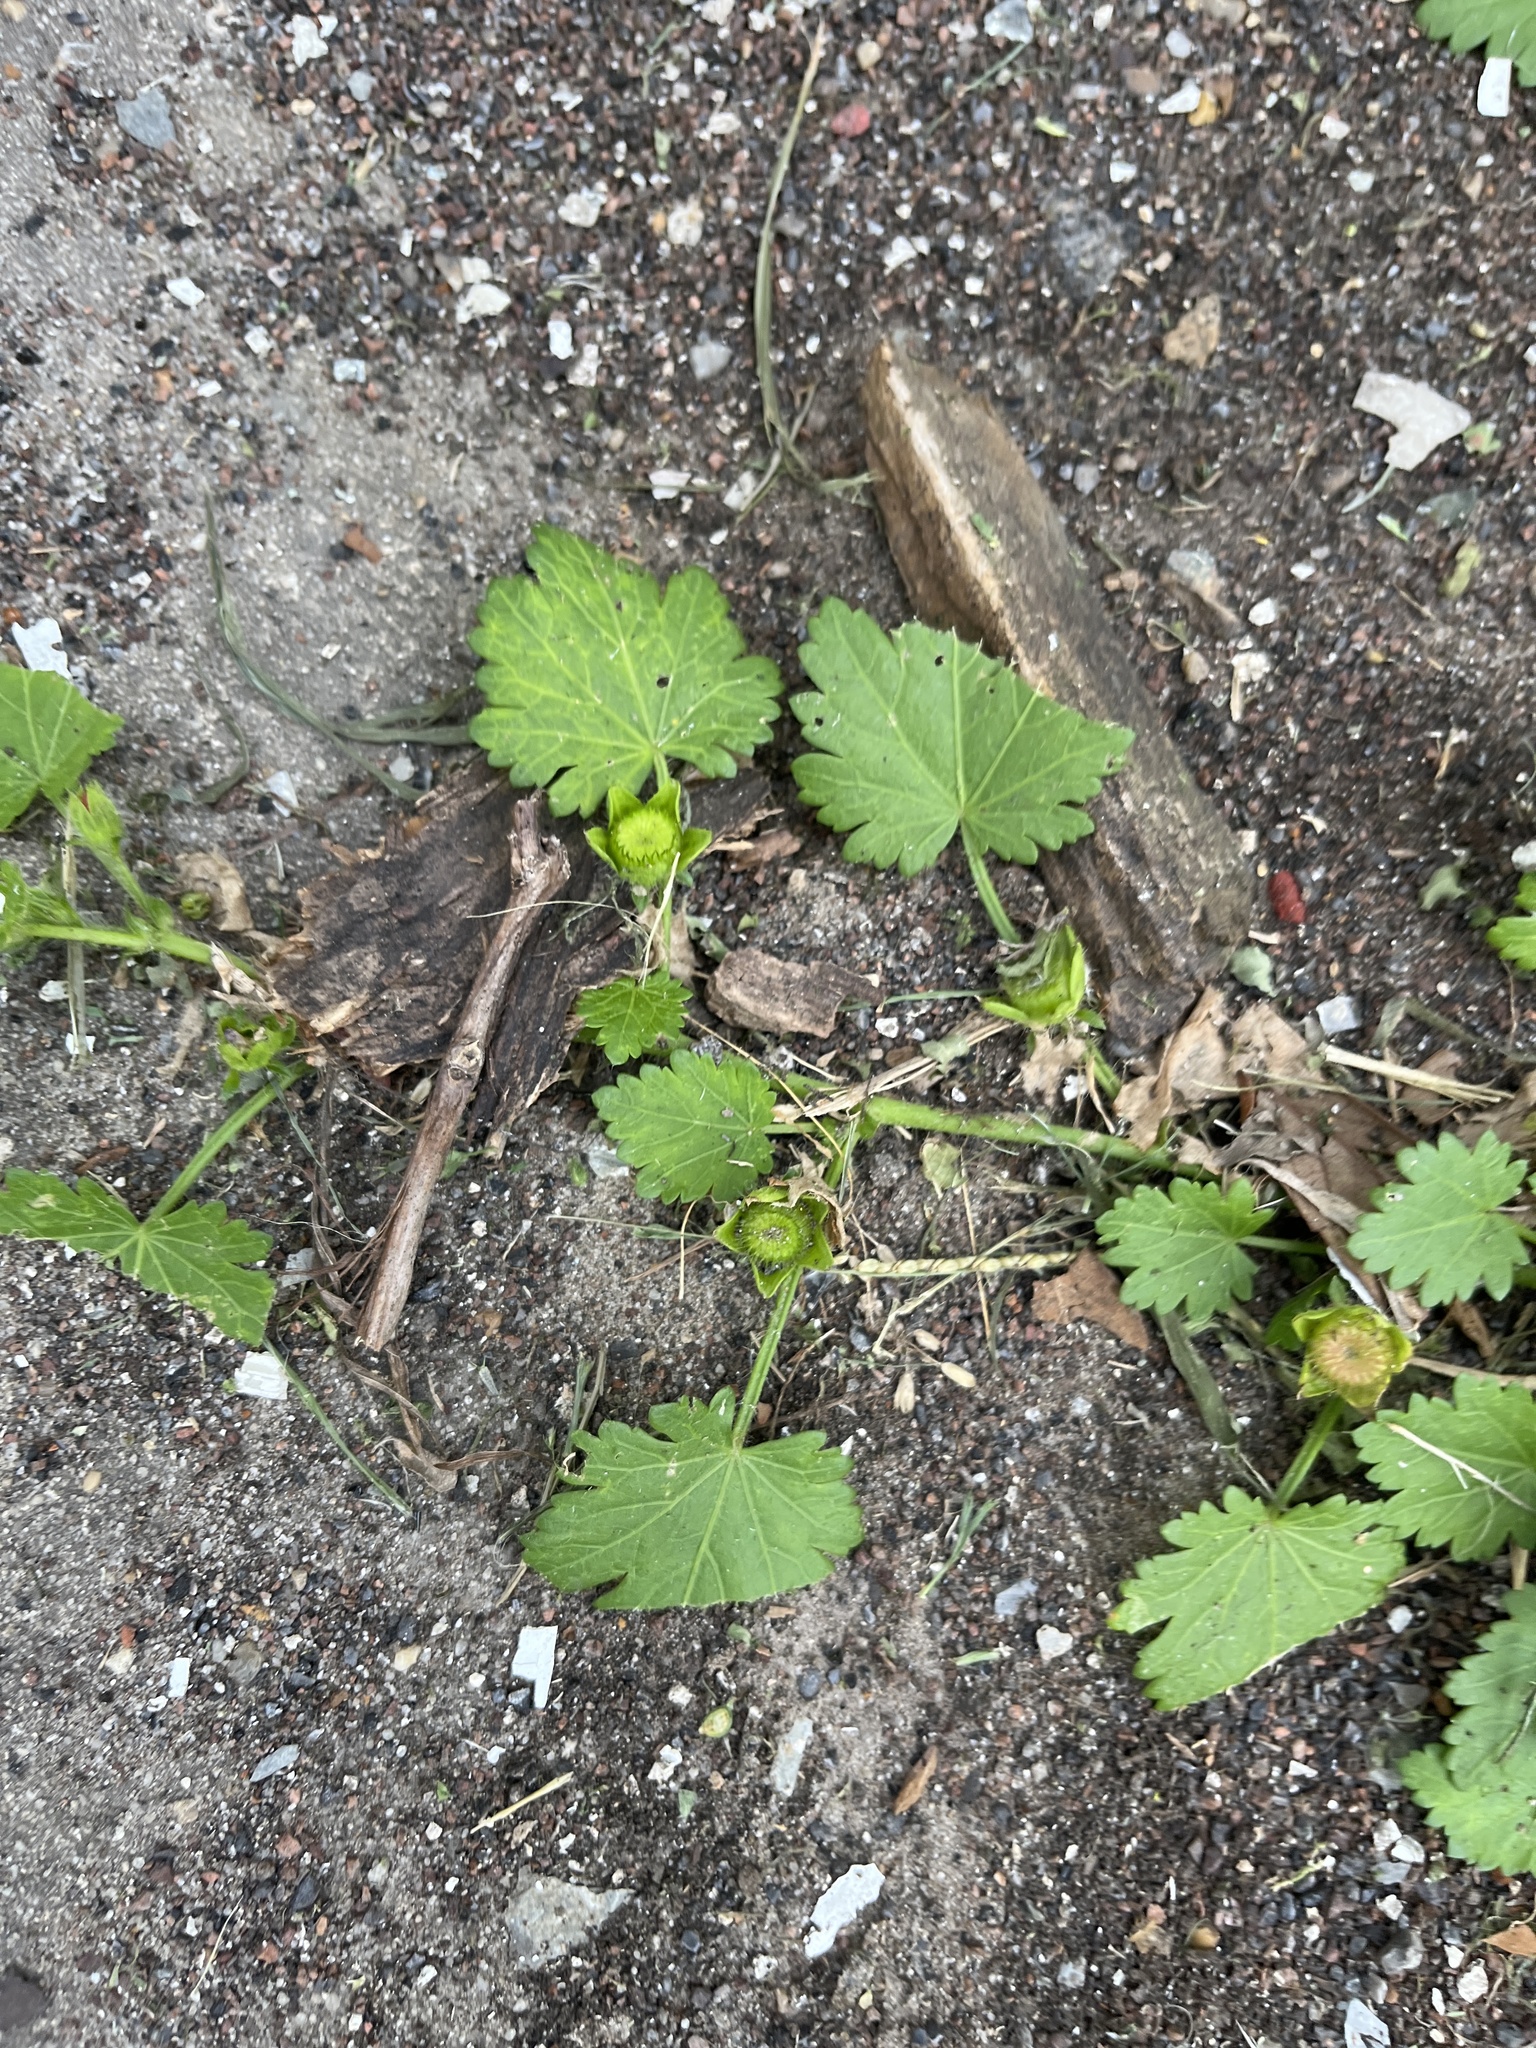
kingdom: Plantae
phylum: Tracheophyta
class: Magnoliopsida
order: Malvales
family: Malvaceae
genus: Modiola
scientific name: Modiola caroliniana
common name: Carolina bristlemallow
